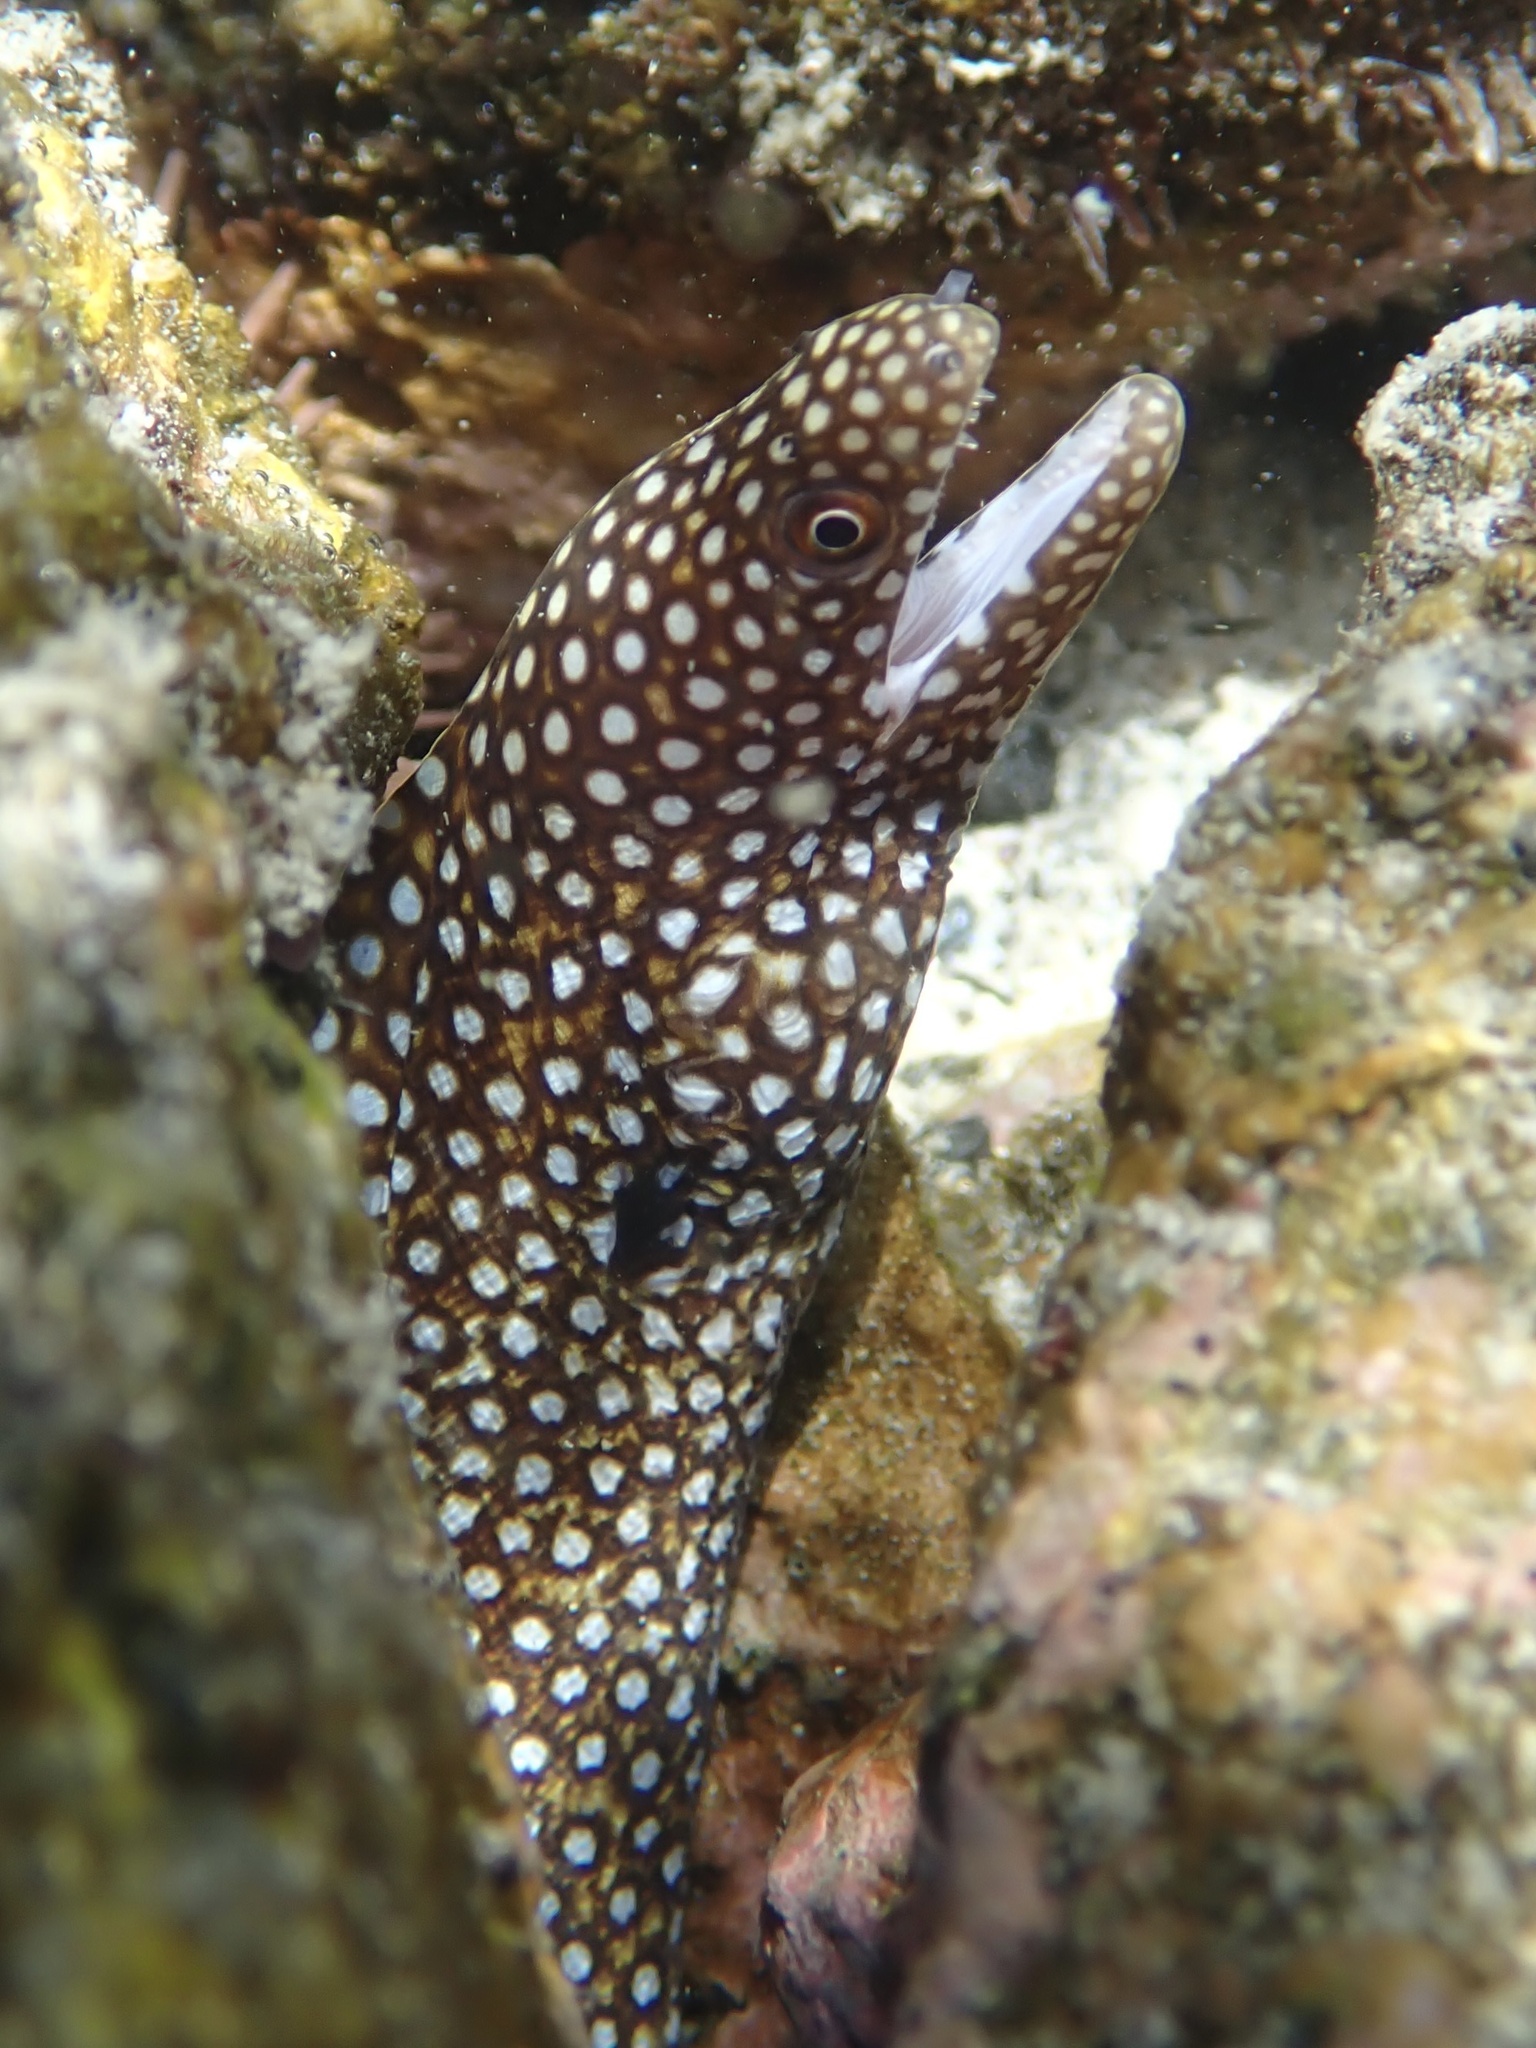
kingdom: Animalia
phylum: Chordata
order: Anguilliformes
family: Muraenidae
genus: Gymnothorax
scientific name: Gymnothorax meleagris
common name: Guineafowl moray
